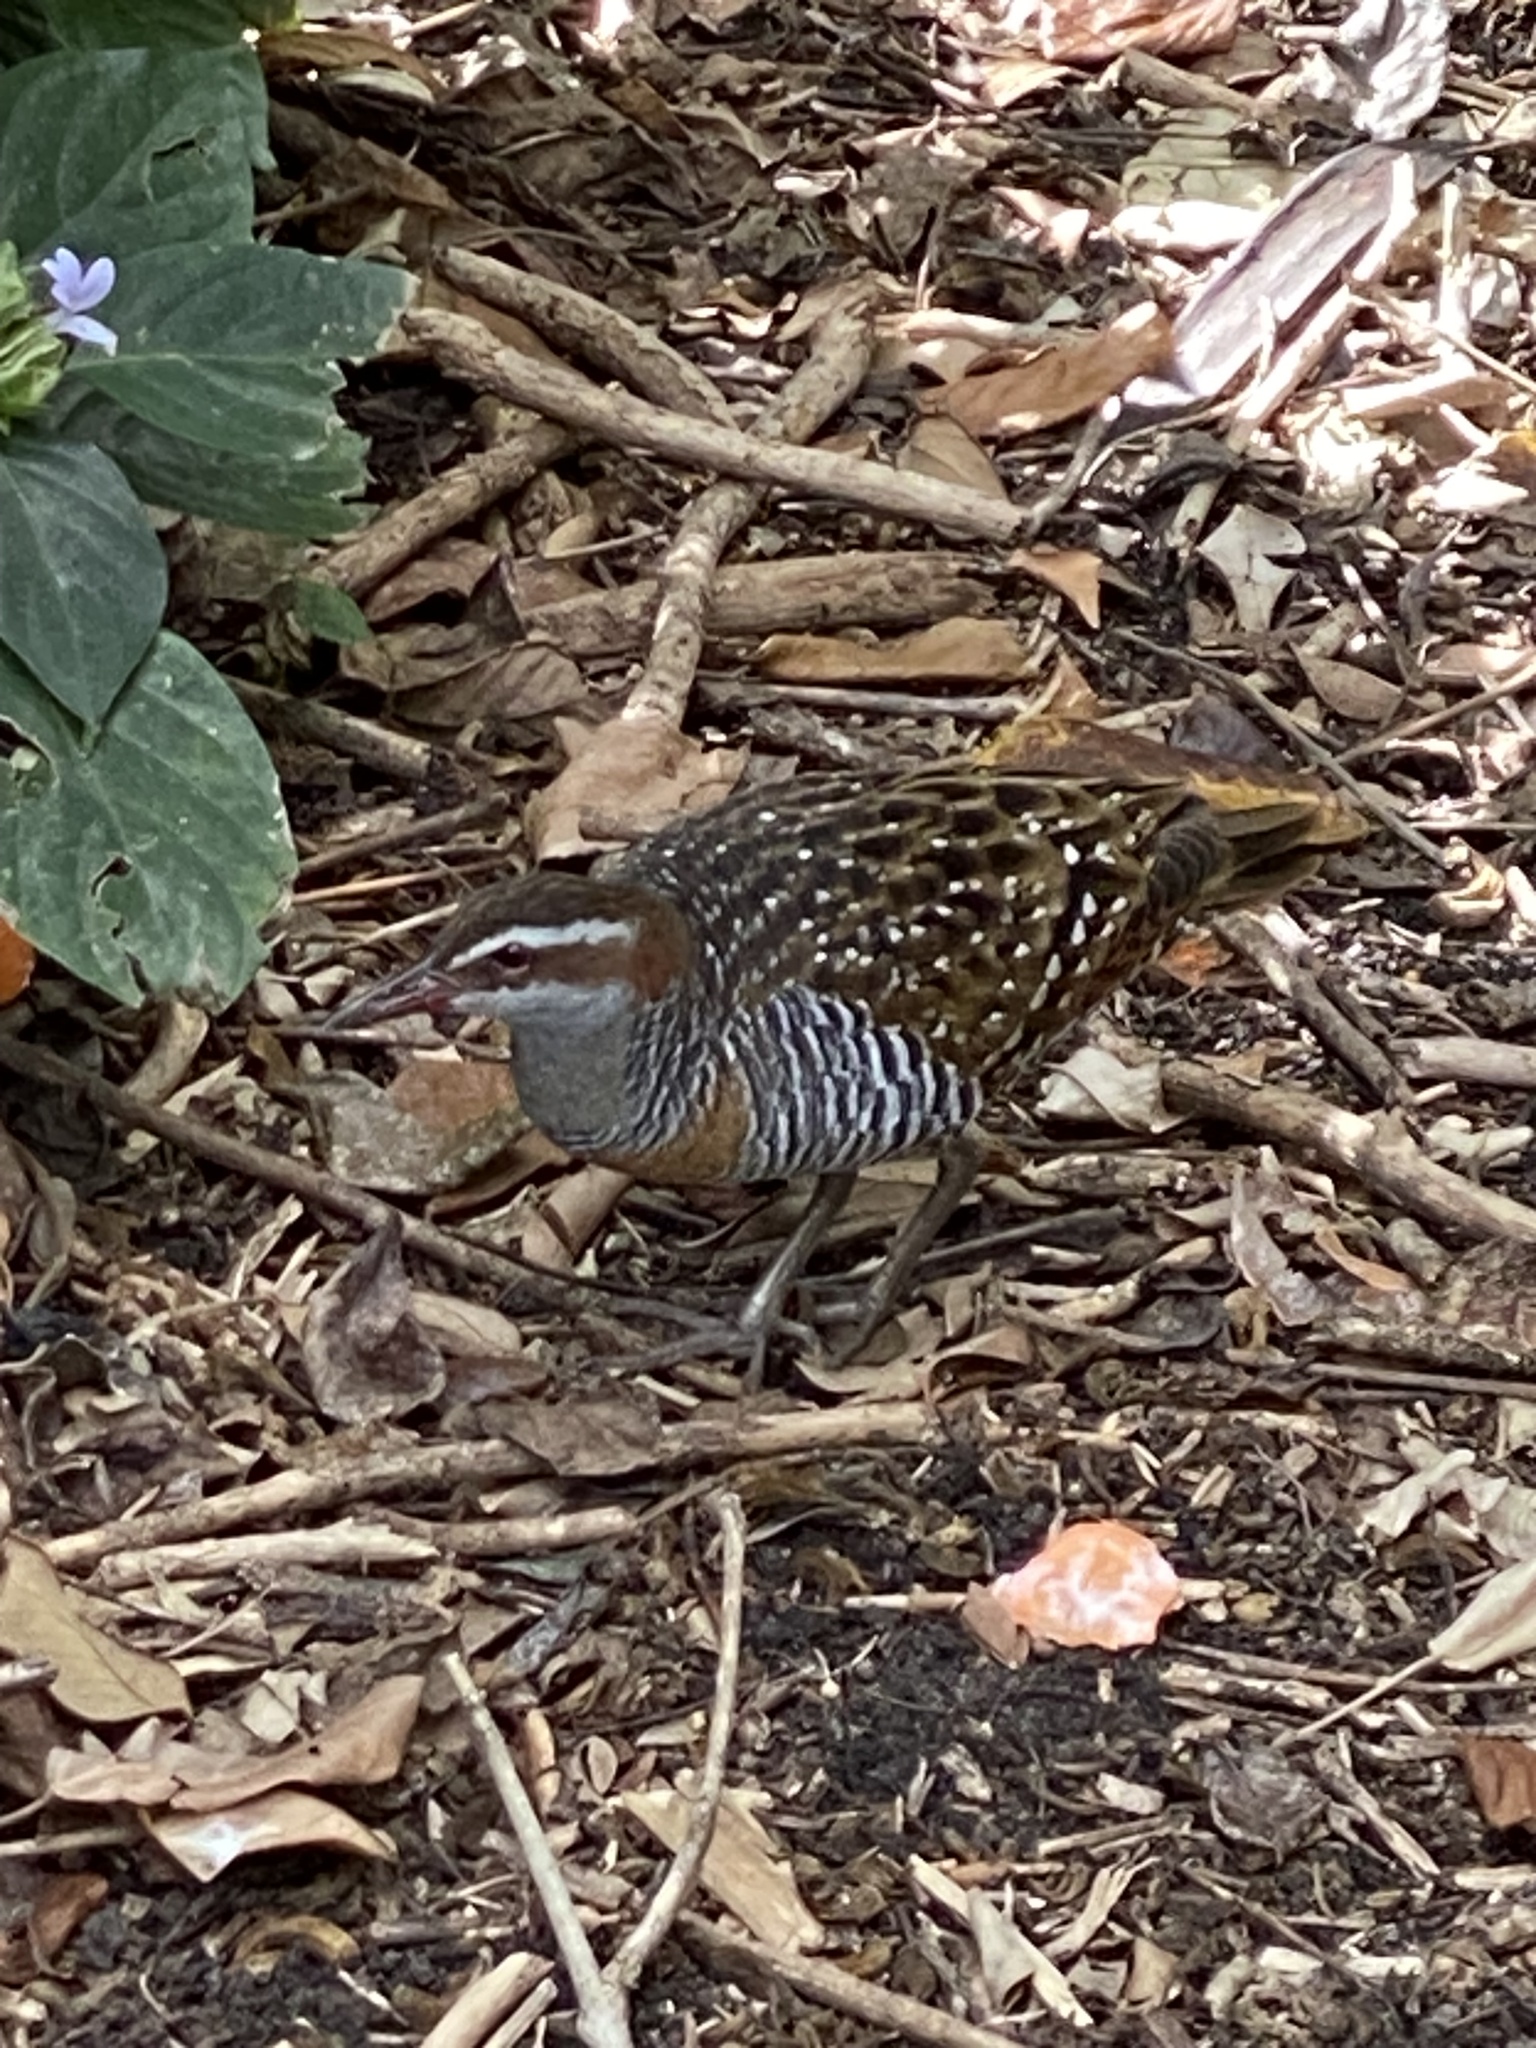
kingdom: Animalia
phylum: Chordata
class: Aves
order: Gruiformes
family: Rallidae
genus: Gallirallus
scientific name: Gallirallus philippensis
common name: Buff-banded rail
